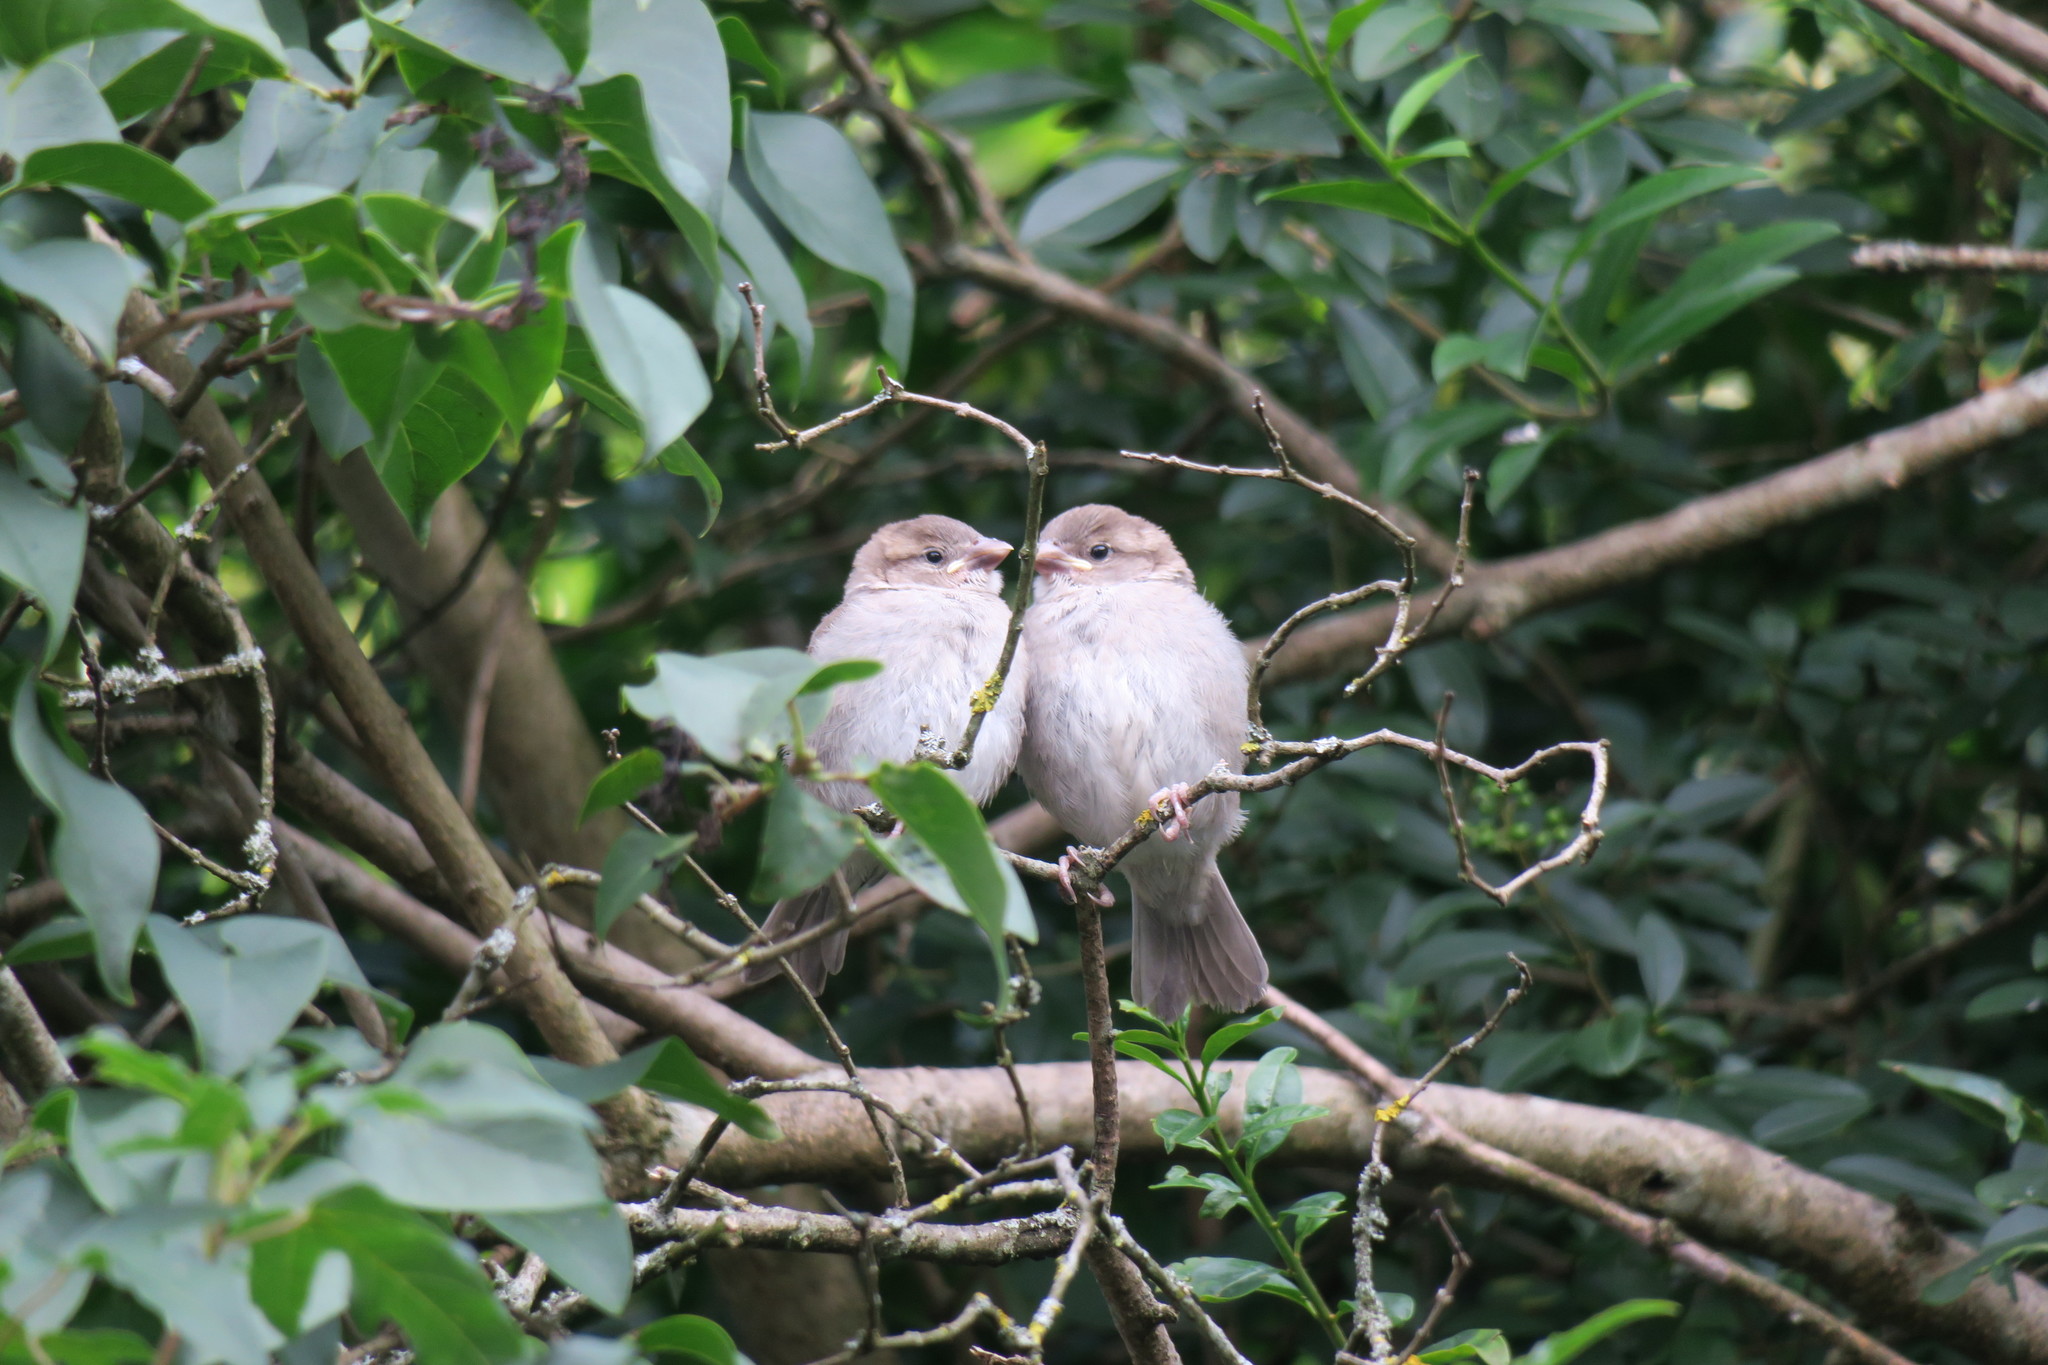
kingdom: Animalia
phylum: Chordata
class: Aves
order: Passeriformes
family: Passeridae
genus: Passer
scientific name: Passer domesticus
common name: House sparrow
